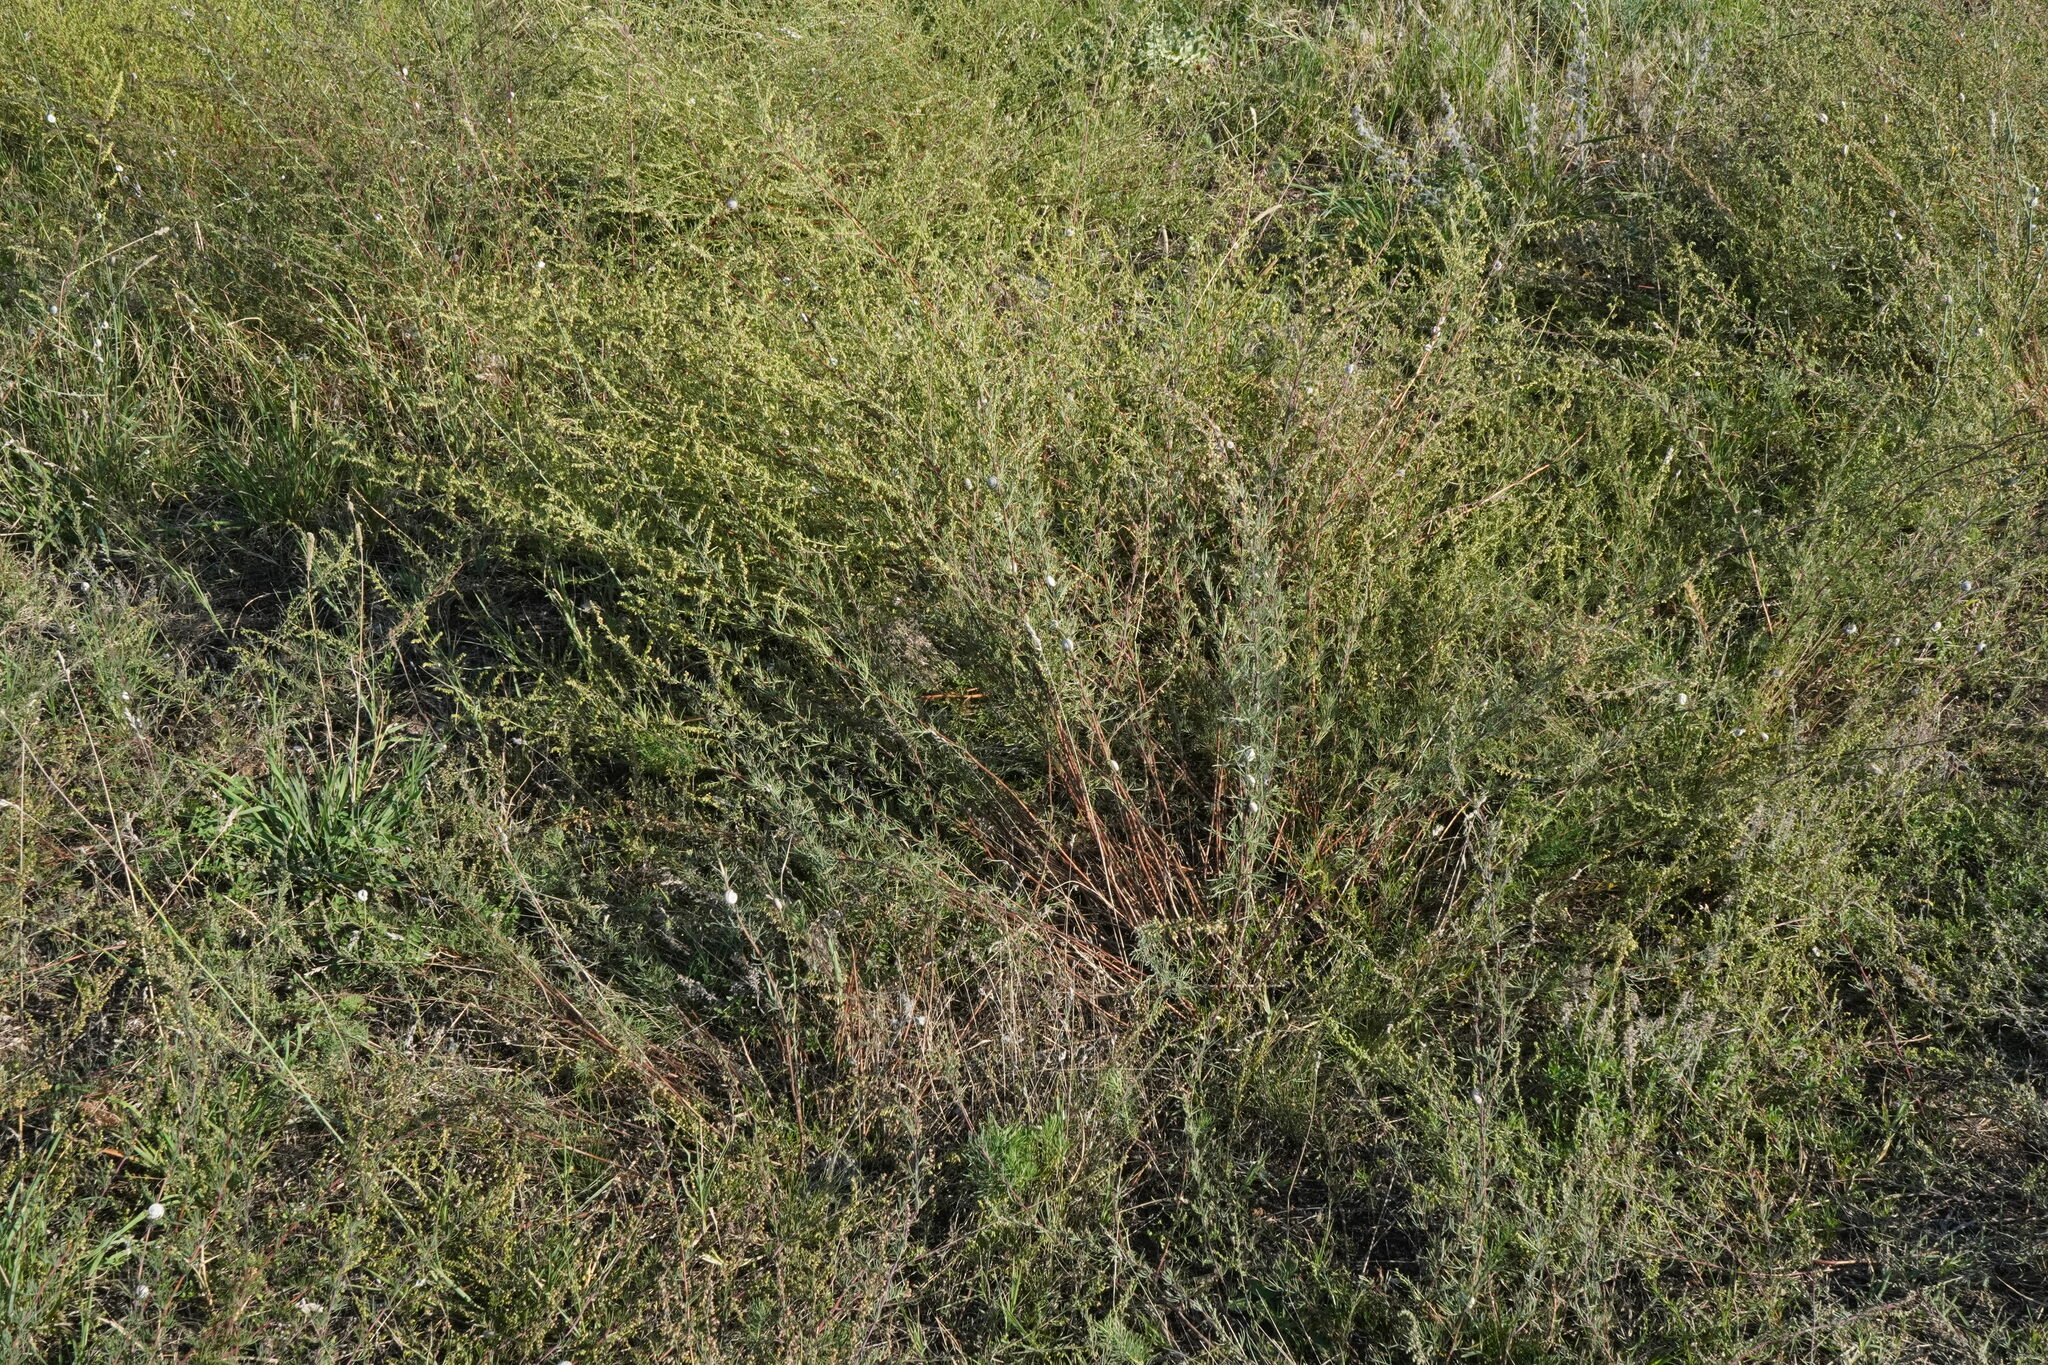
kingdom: Plantae
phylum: Tracheophyta
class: Magnoliopsida
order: Asterales
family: Asteraceae
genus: Artemisia
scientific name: Artemisia campestris
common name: Field wormwood
